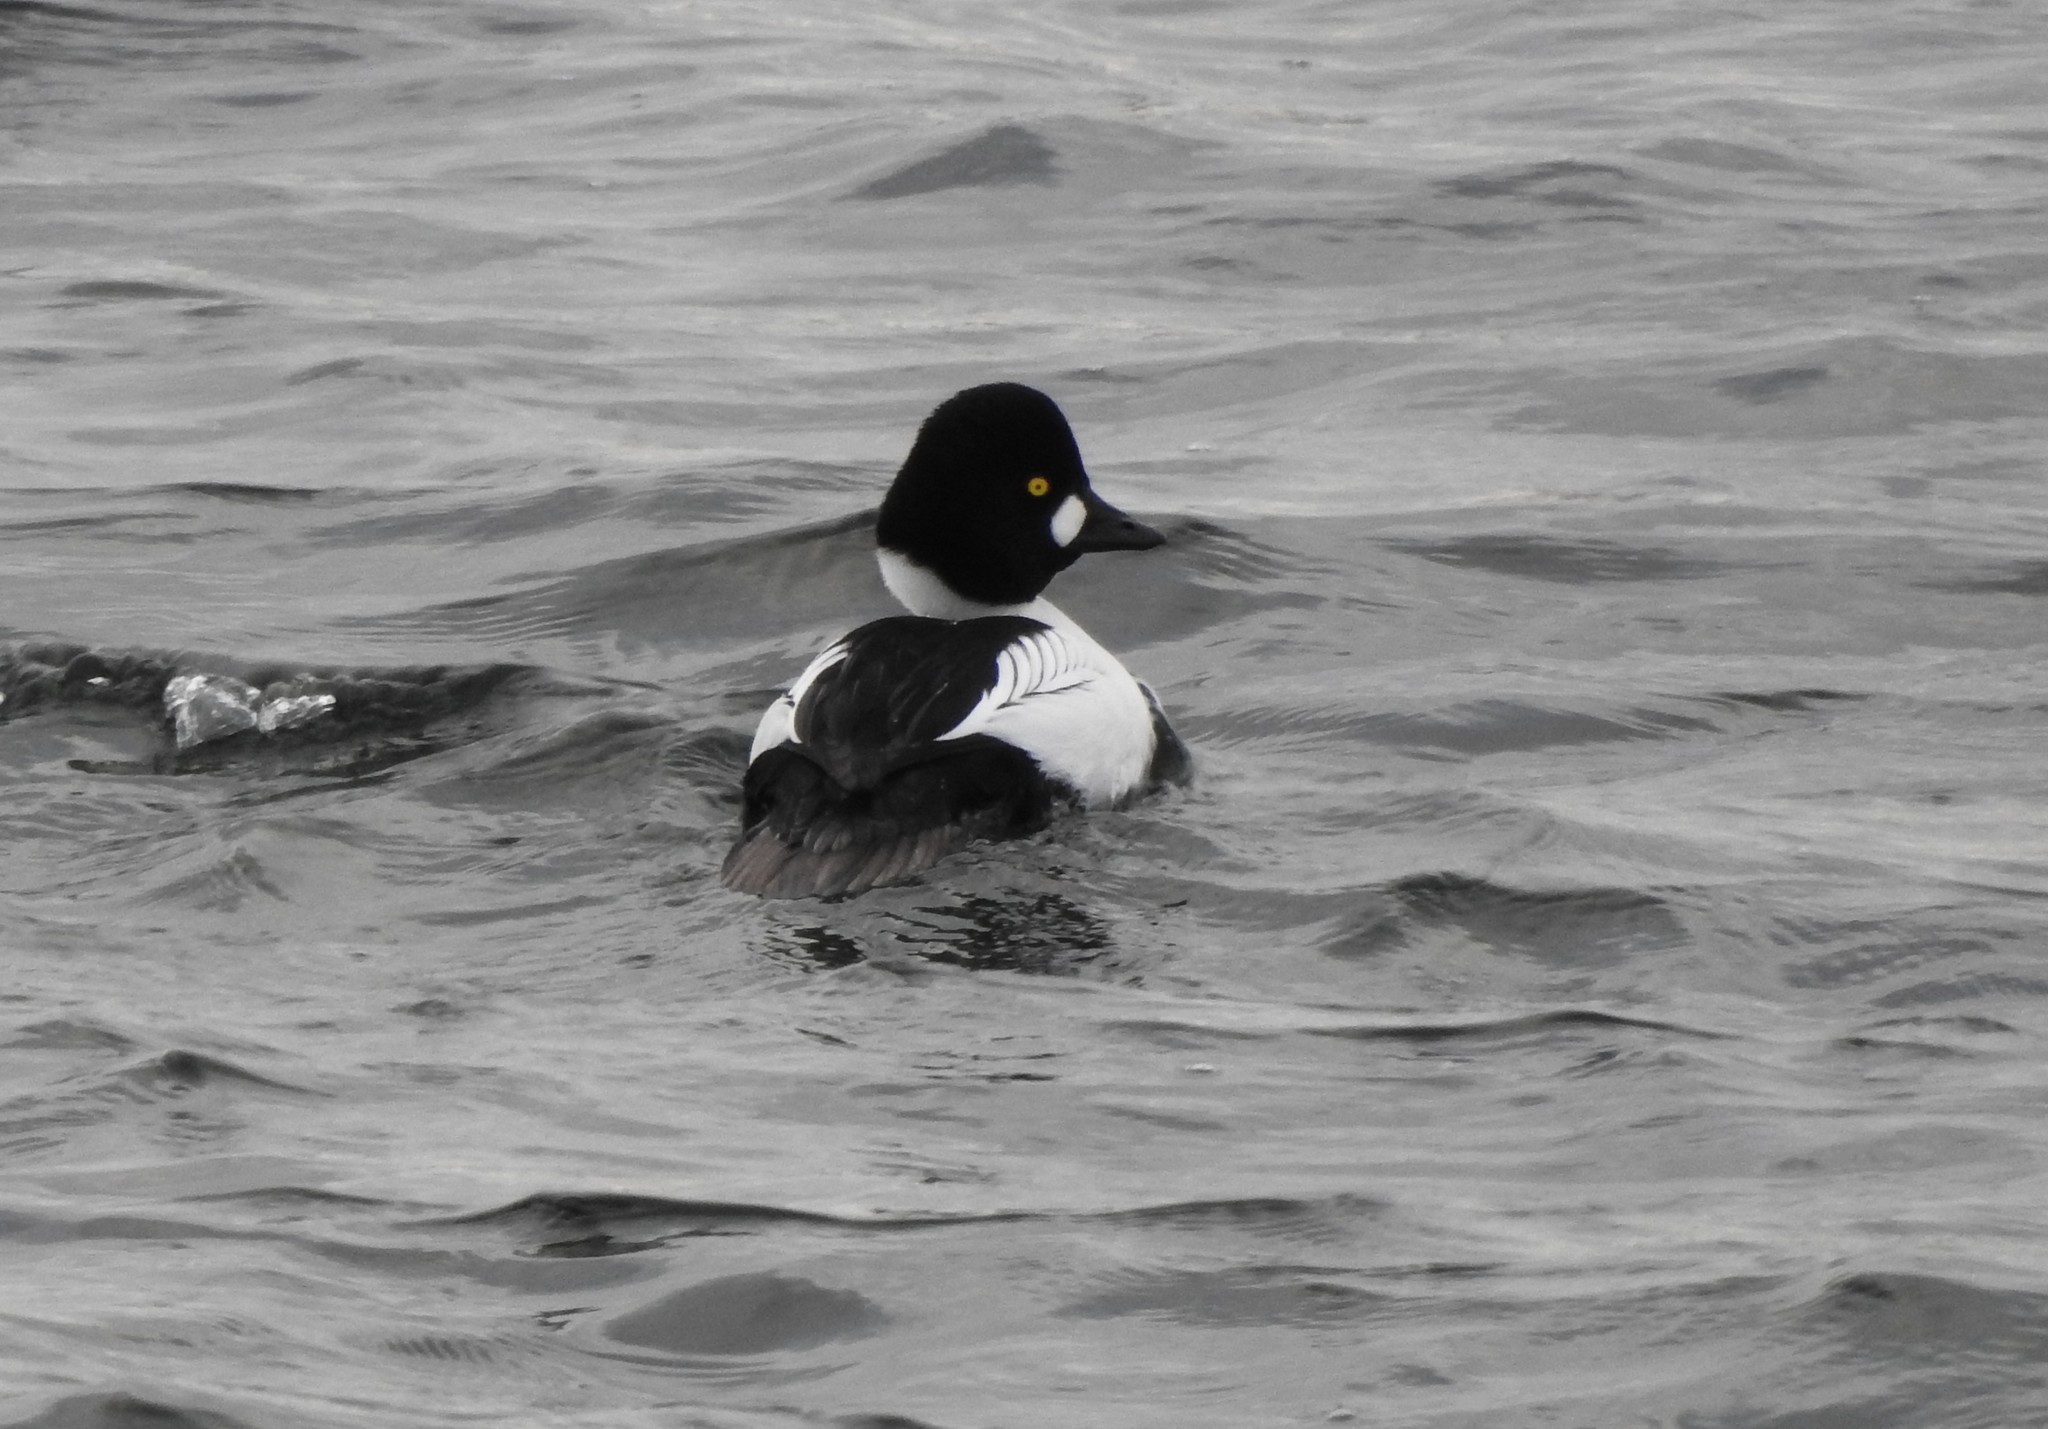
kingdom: Animalia
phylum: Chordata
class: Aves
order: Anseriformes
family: Anatidae
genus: Bucephala
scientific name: Bucephala clangula
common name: Common goldeneye
